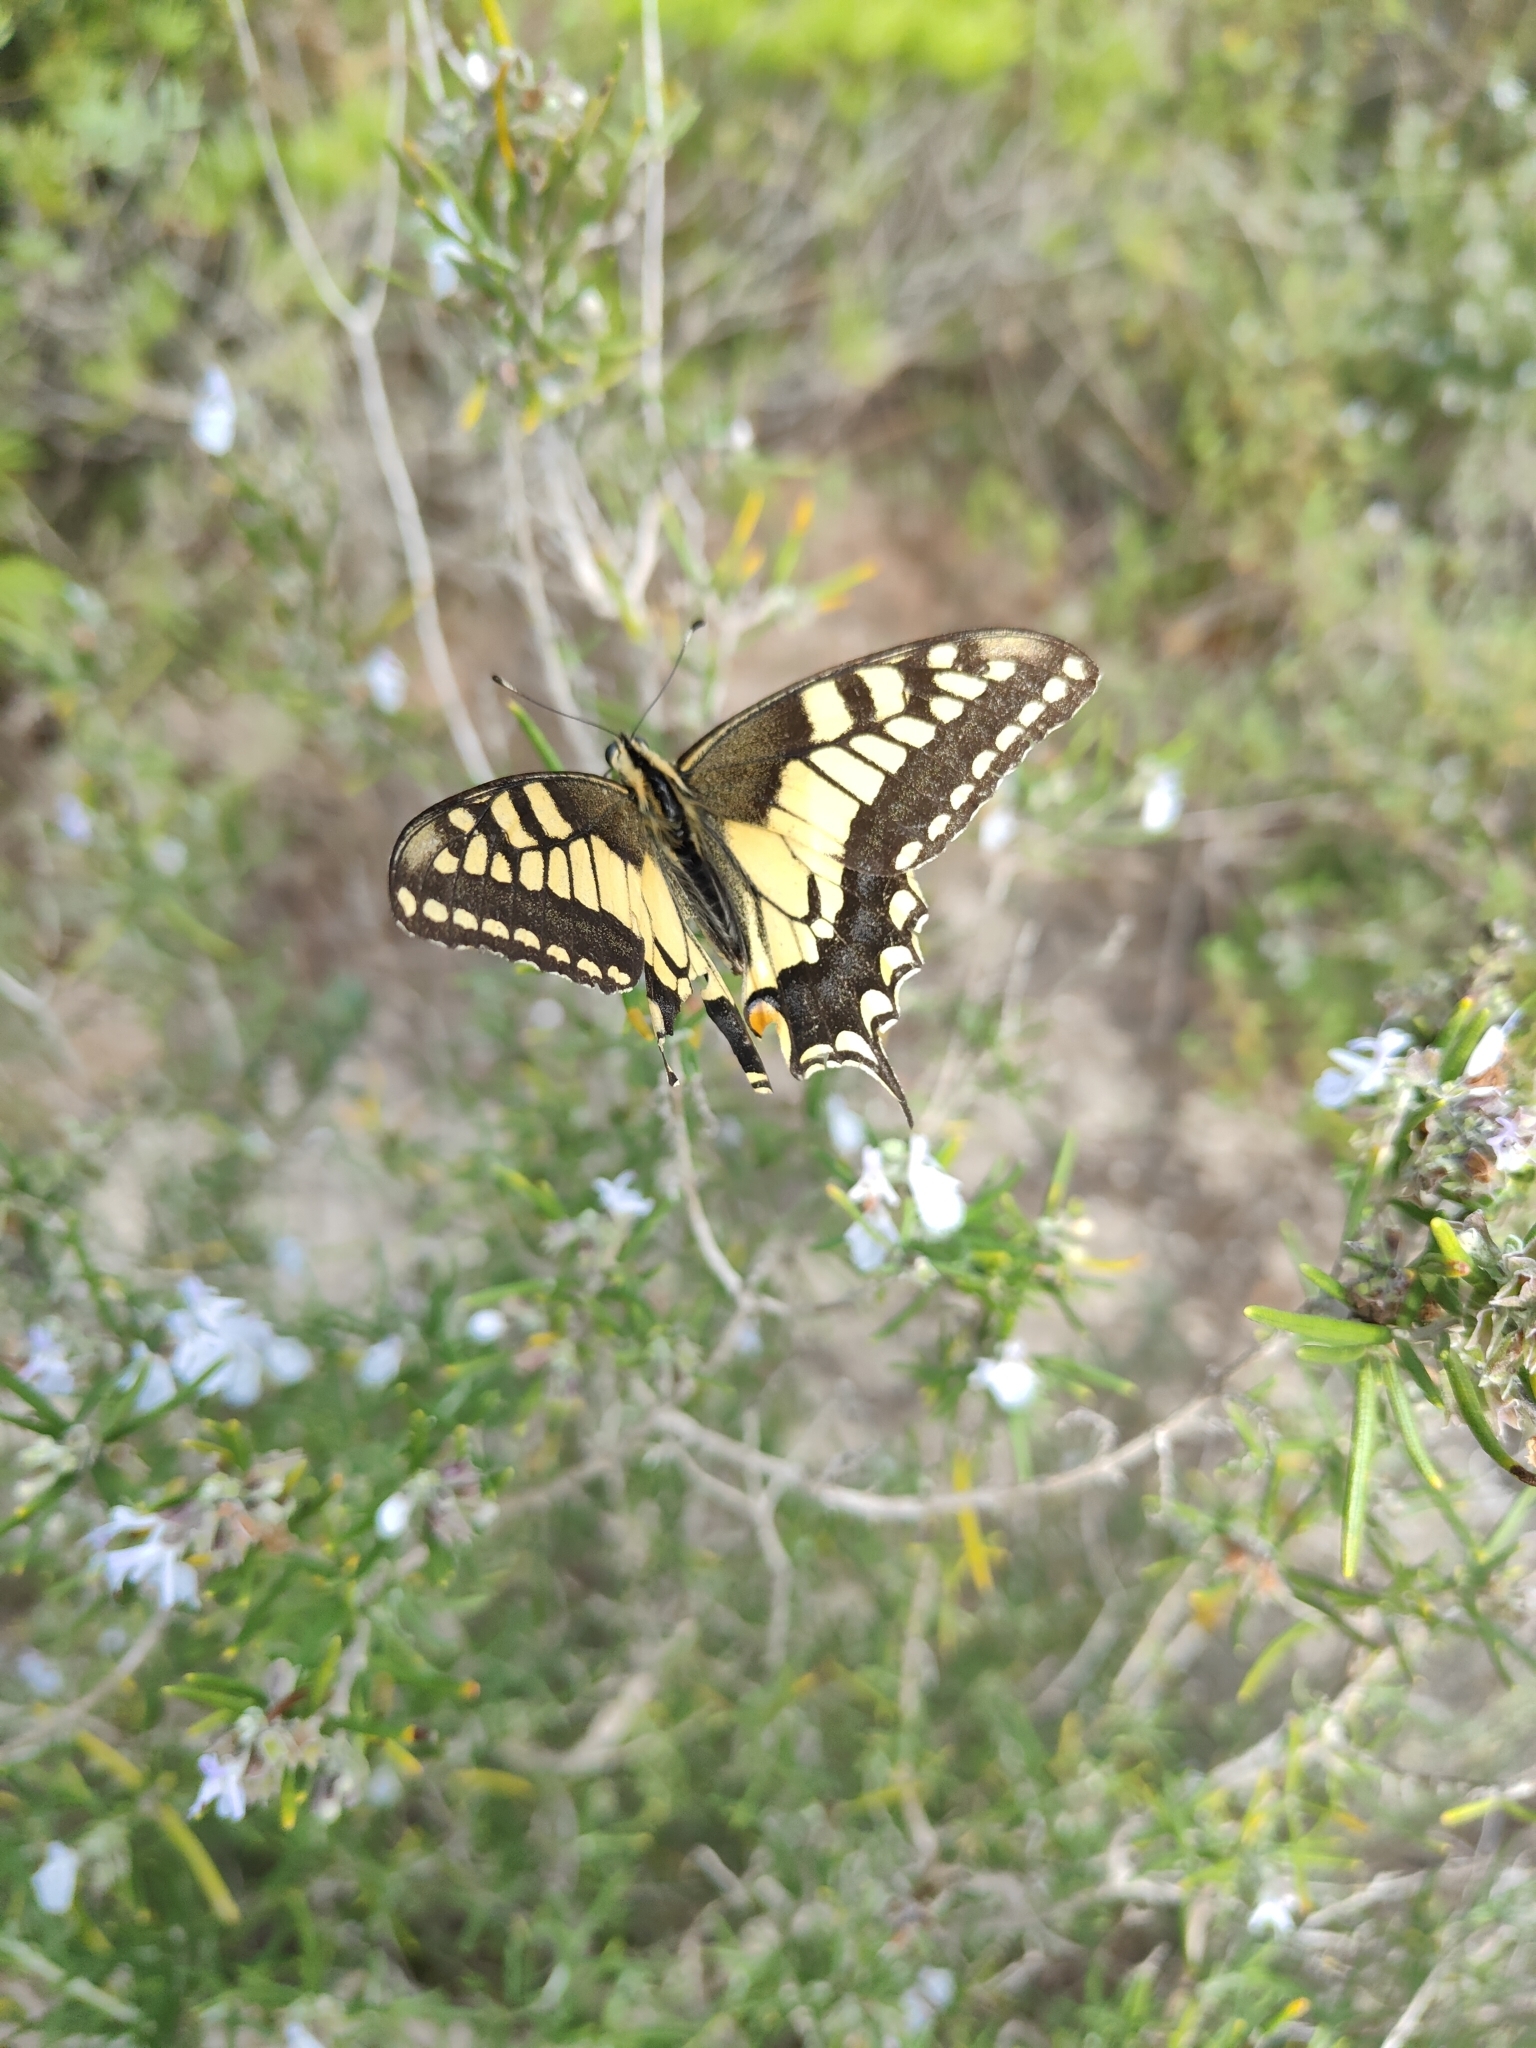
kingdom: Animalia
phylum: Arthropoda
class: Insecta
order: Lepidoptera
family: Papilionidae
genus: Papilio
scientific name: Papilio machaon
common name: Swallowtail
